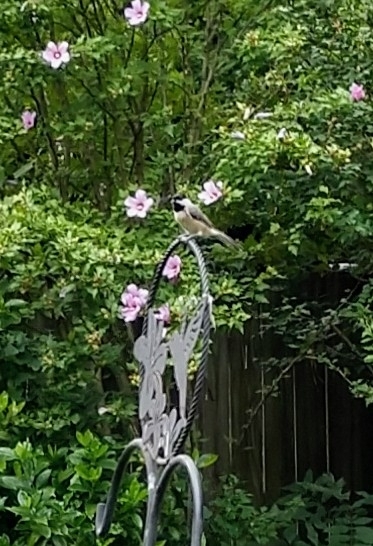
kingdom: Animalia
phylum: Chordata
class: Aves
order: Passeriformes
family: Paridae
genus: Poecile
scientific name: Poecile carolinensis
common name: Carolina chickadee
